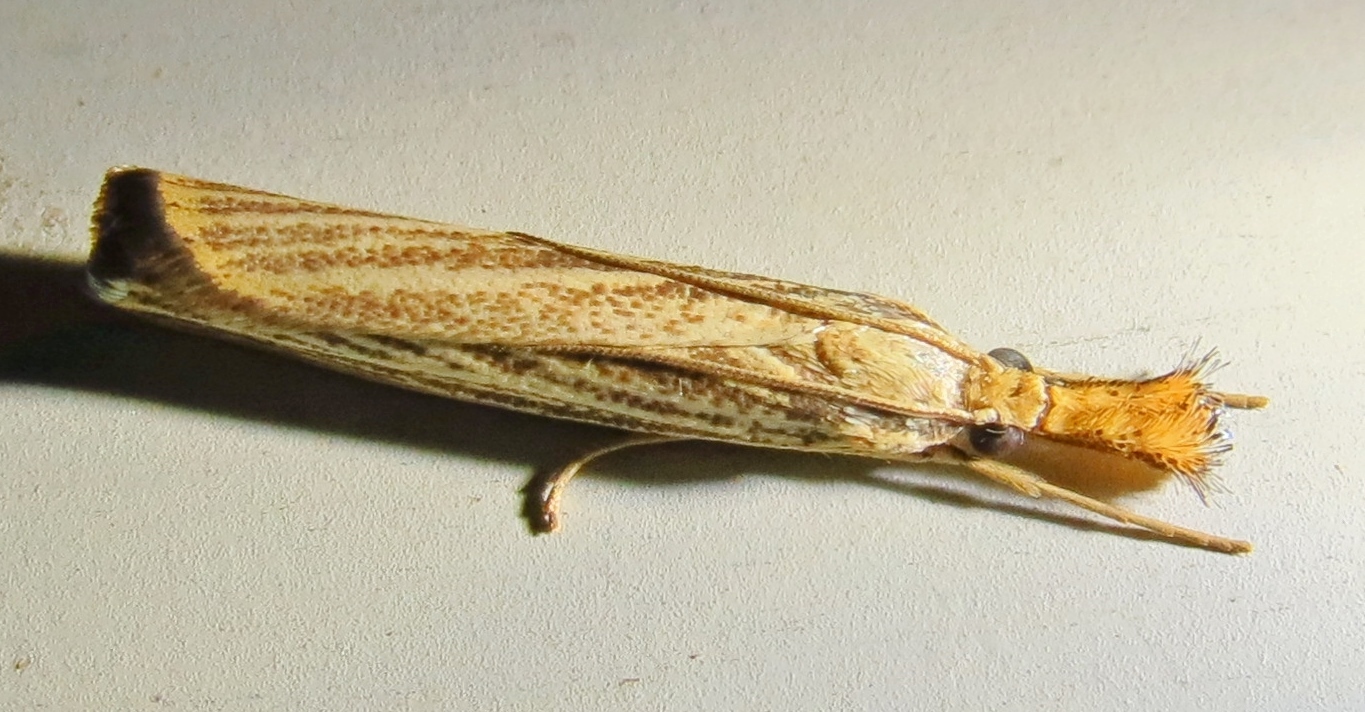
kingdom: Animalia
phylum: Arthropoda
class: Insecta
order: Lepidoptera
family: Crambidae
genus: Agriphila
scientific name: Agriphila vulgivagellus
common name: Vagabond crambus moth
